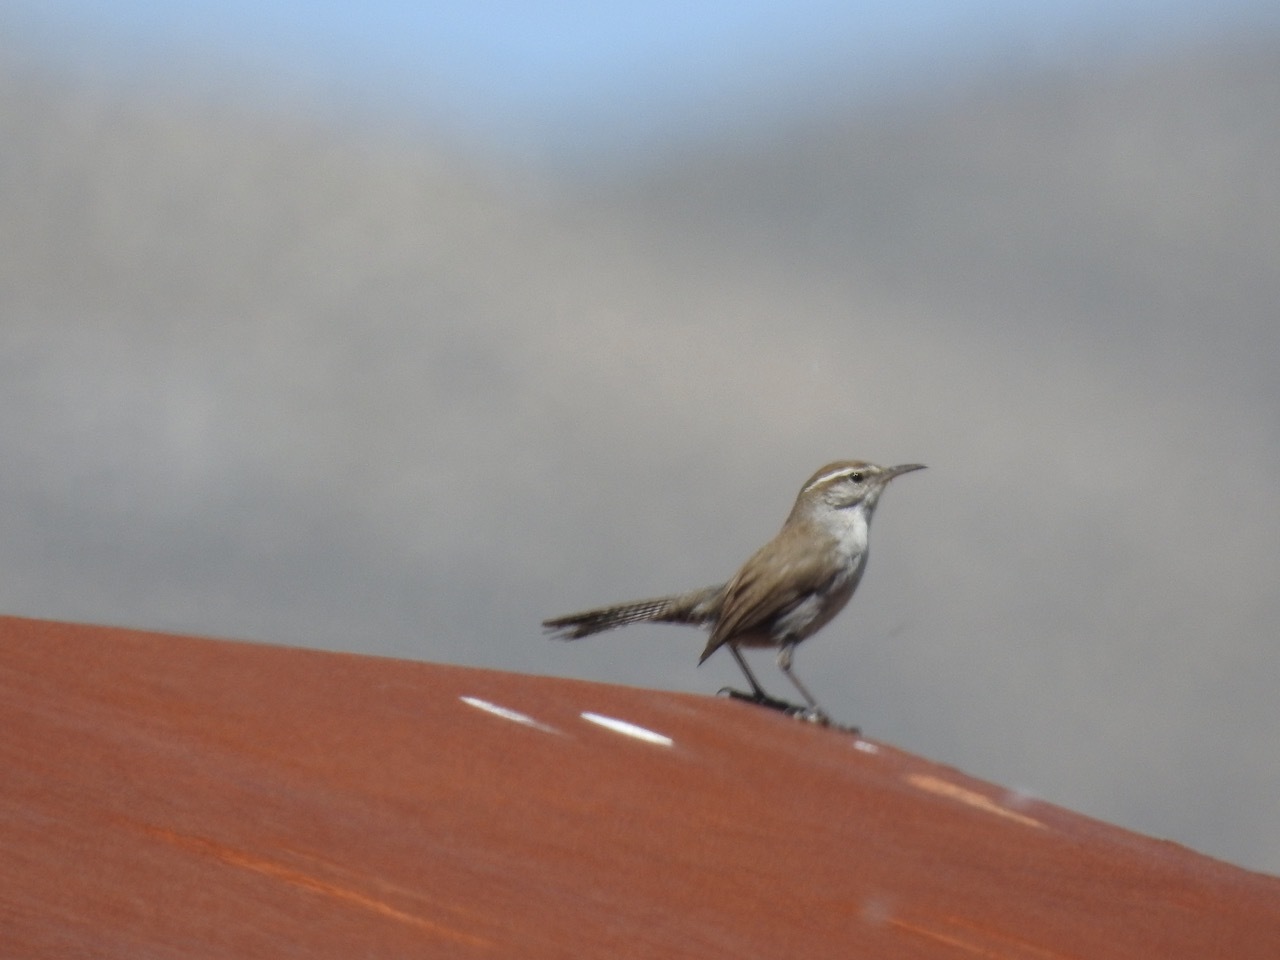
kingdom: Animalia
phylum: Chordata
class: Aves
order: Passeriformes
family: Troglodytidae
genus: Thryomanes
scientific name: Thryomanes bewickii
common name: Bewick's wren
